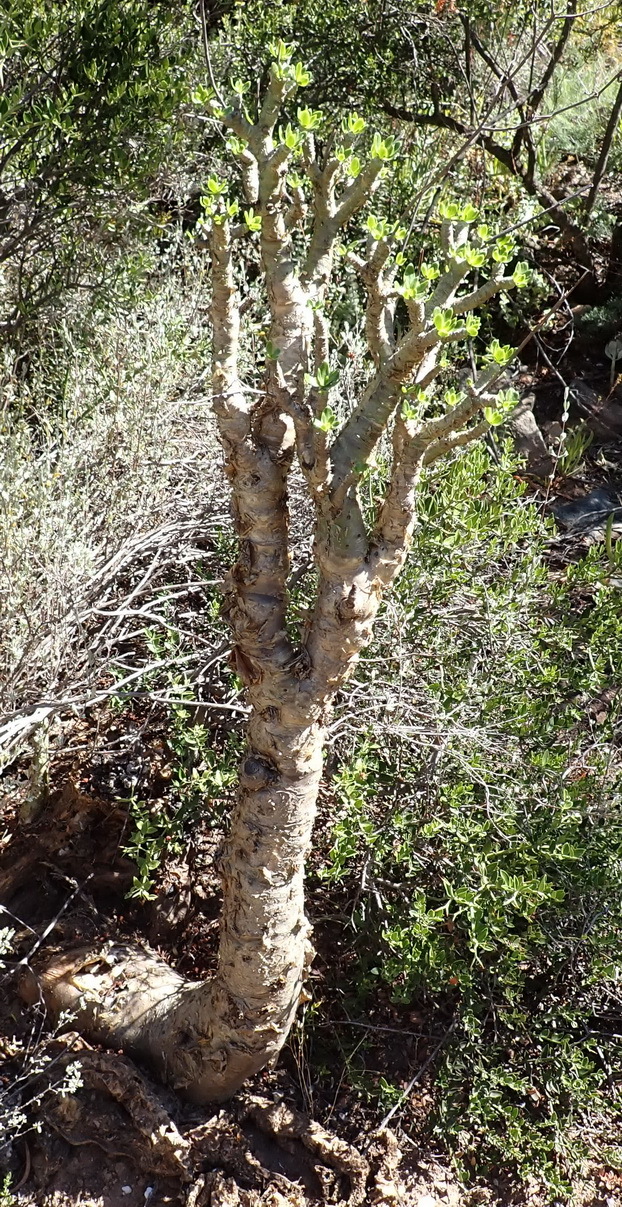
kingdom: Plantae
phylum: Tracheophyta
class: Magnoliopsida
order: Saxifragales
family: Crassulaceae
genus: Tylecodon
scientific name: Tylecodon paniculatus
